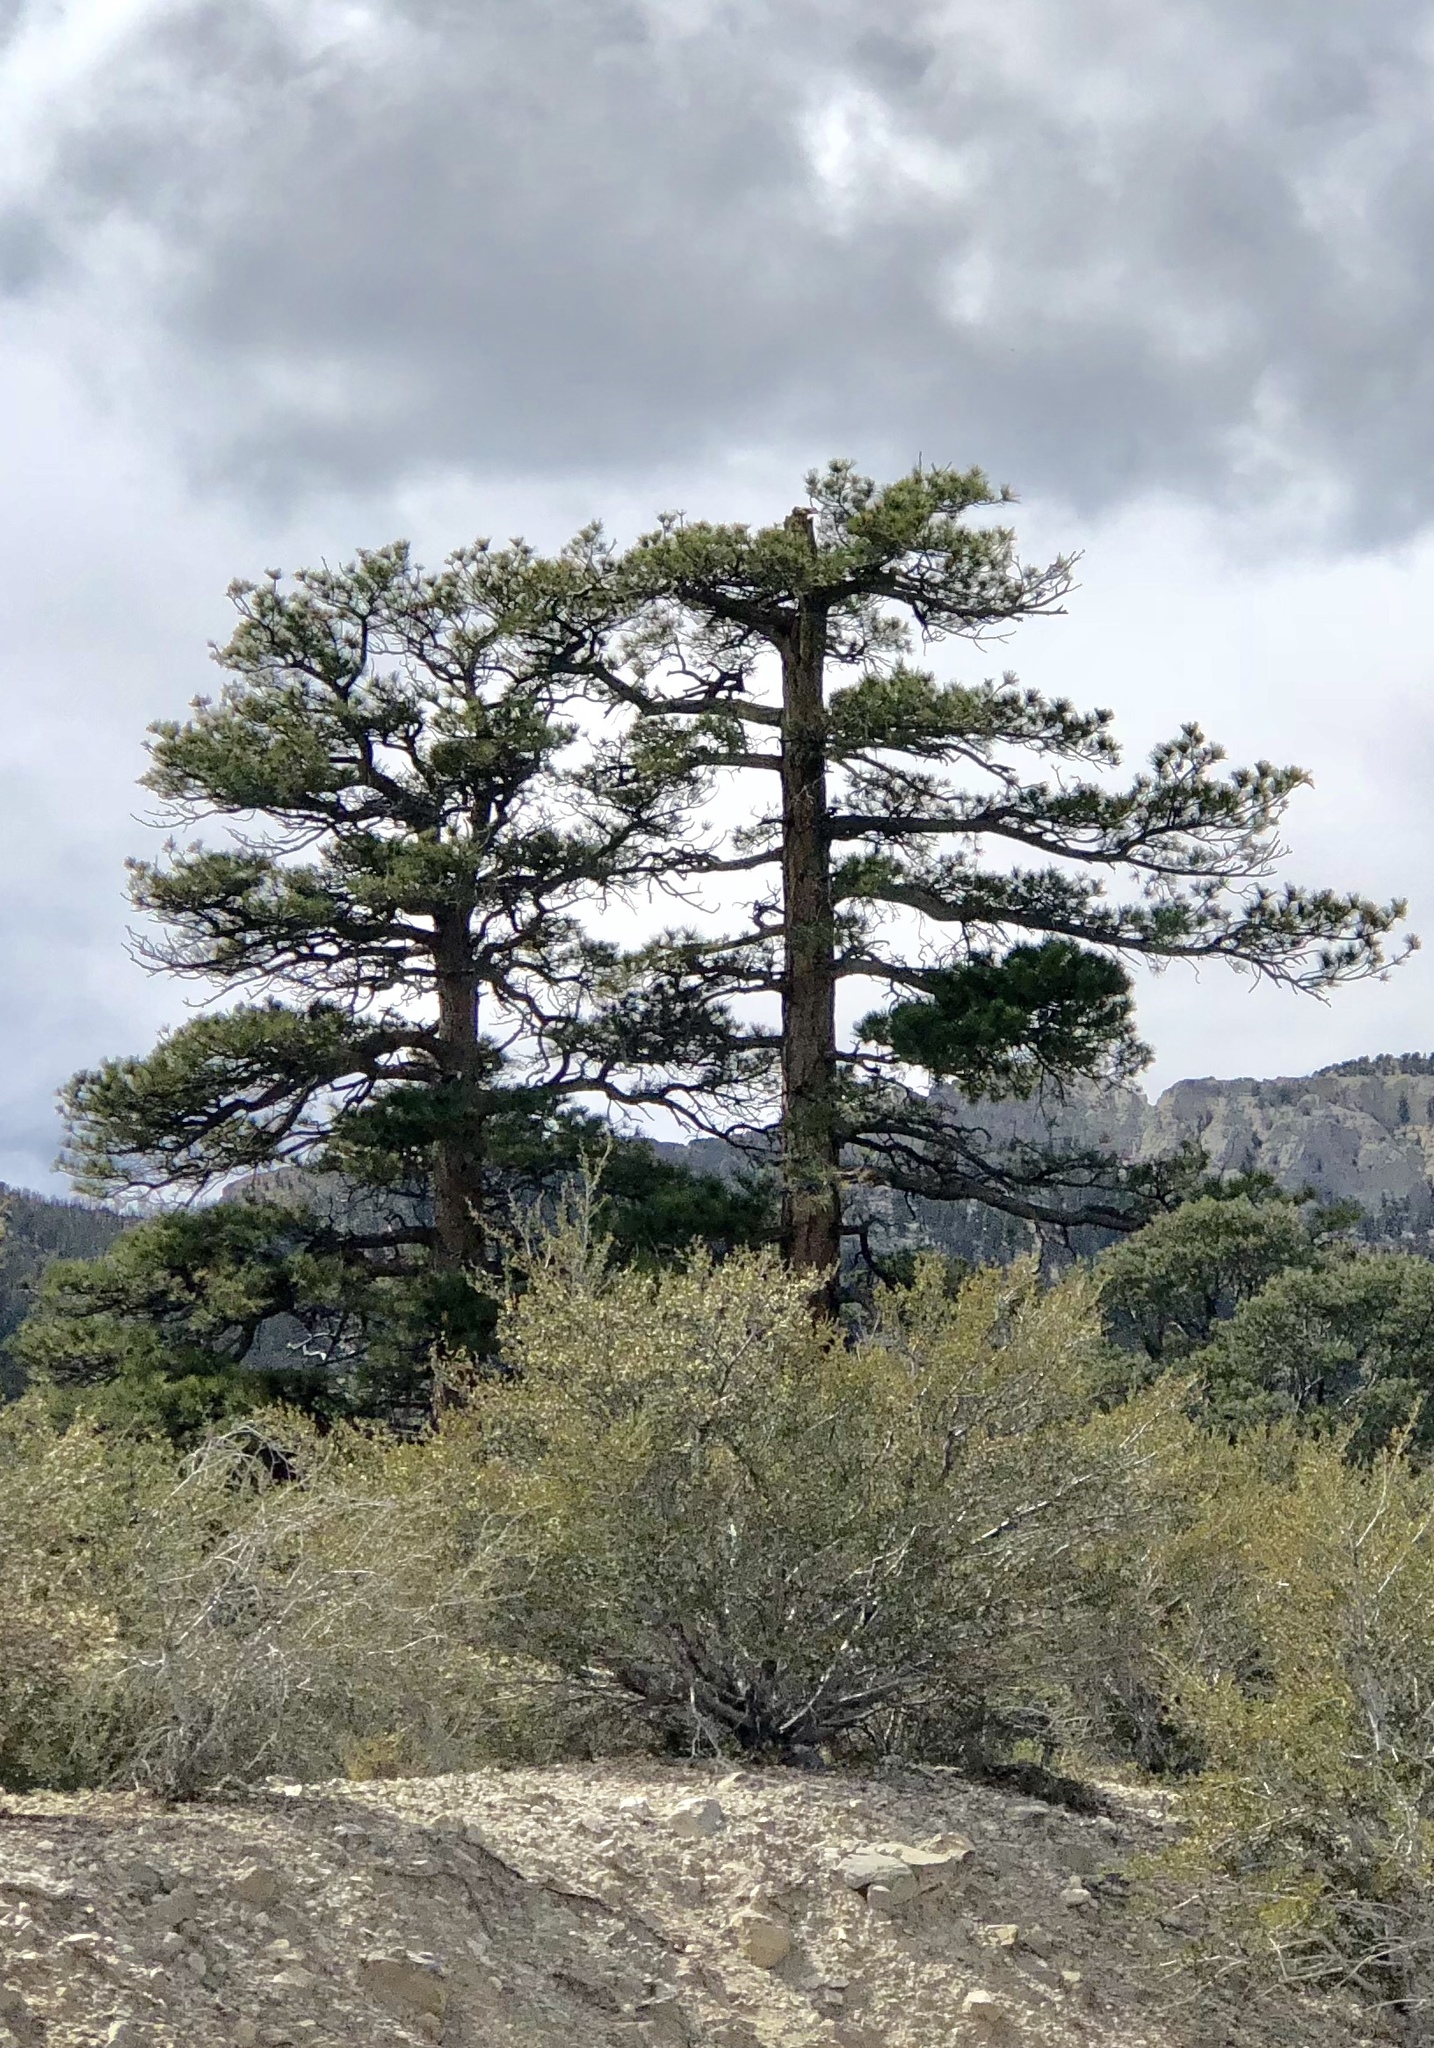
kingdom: Plantae
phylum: Tracheophyta
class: Pinopsida
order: Pinales
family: Pinaceae
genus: Pinus
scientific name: Pinus ponderosa
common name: Western yellow-pine
